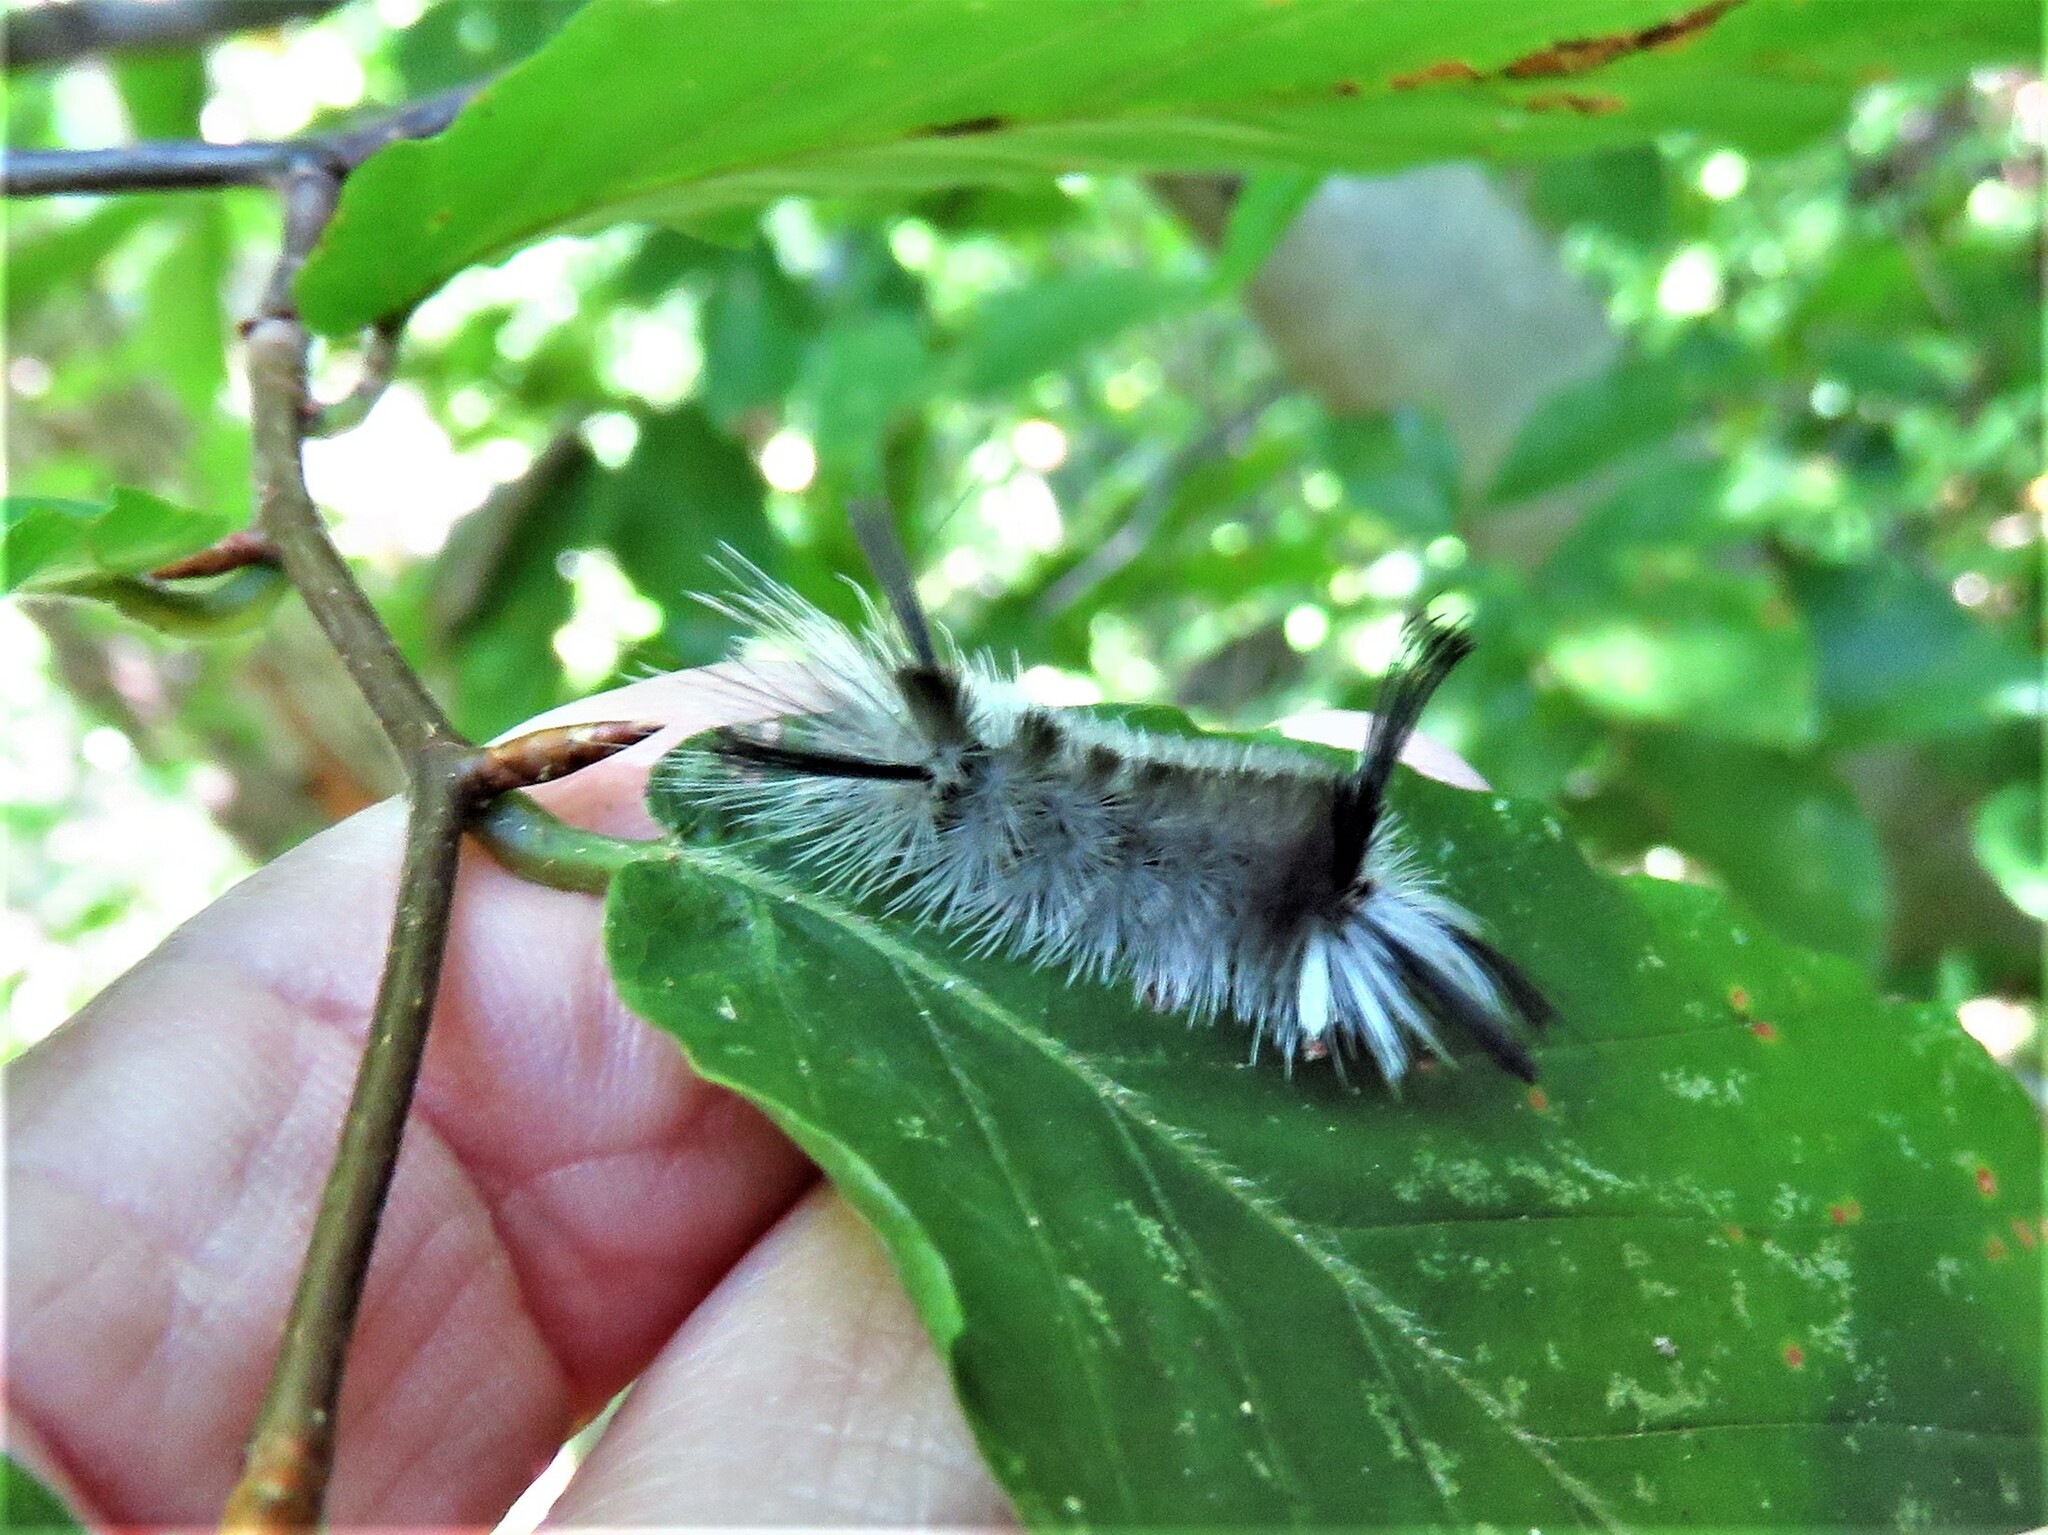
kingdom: Animalia
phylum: Arthropoda
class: Insecta
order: Lepidoptera
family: Erebidae
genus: Halysidota
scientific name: Halysidota tessellaris
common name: Banded tussock moth
